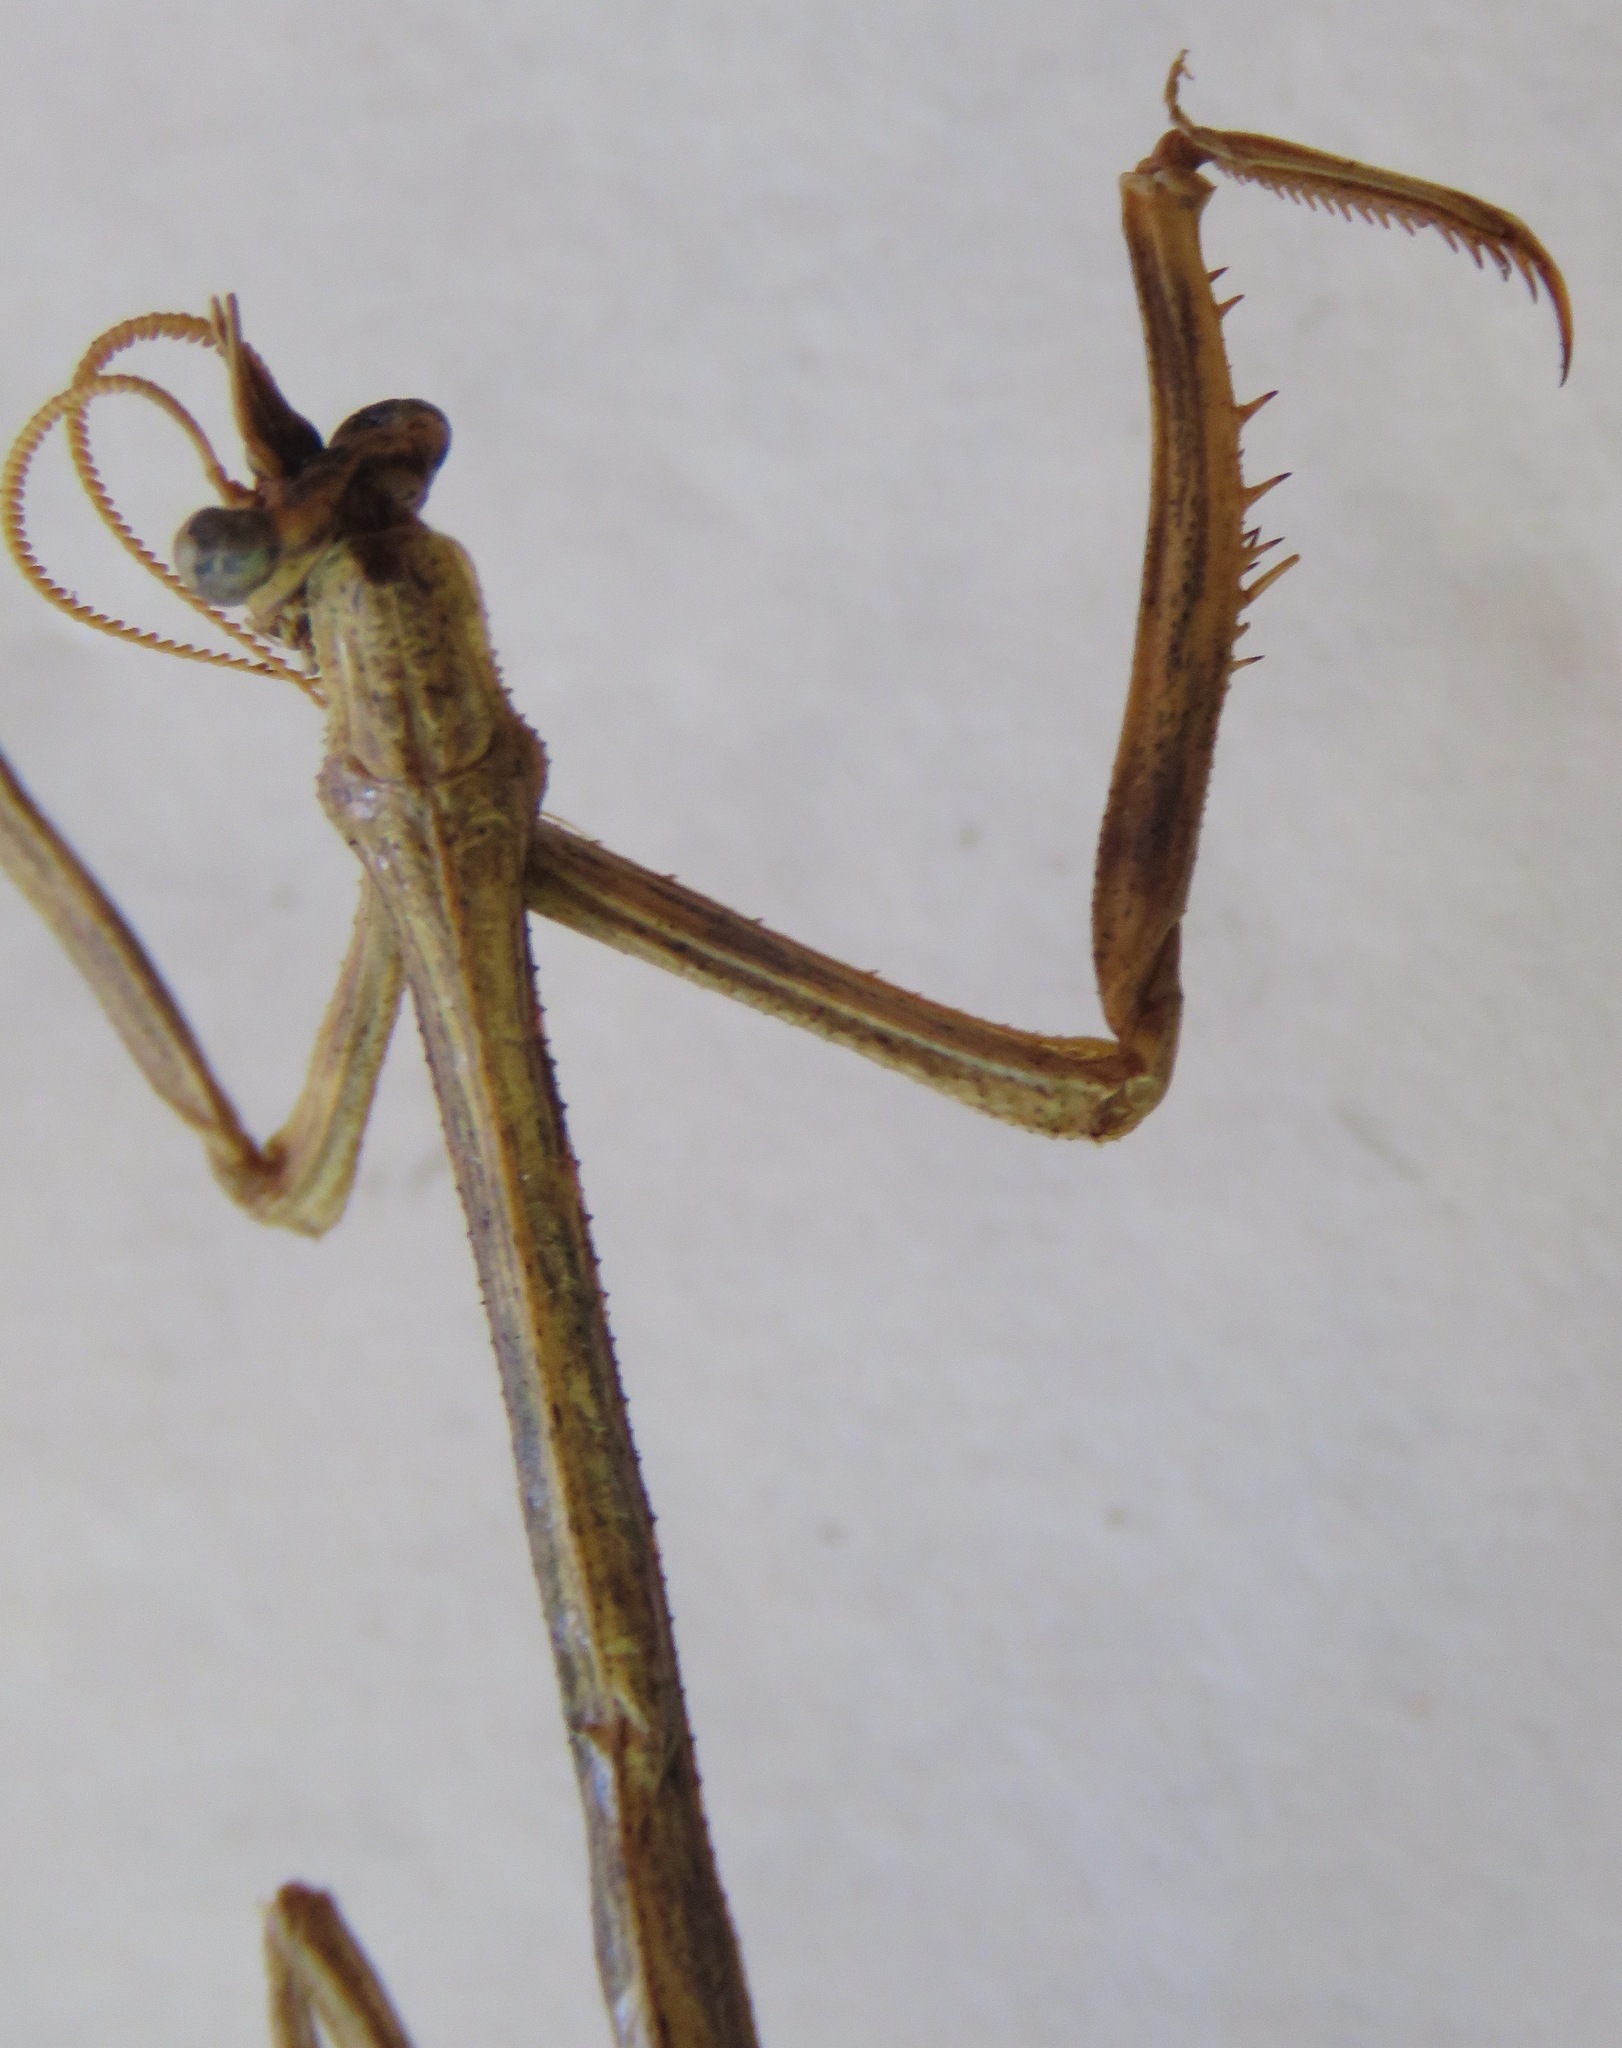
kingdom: Animalia
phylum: Arthropoda
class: Insecta
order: Mantodea
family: Mantidae
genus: Pseudovates
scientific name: Pseudovates chlorophaea
